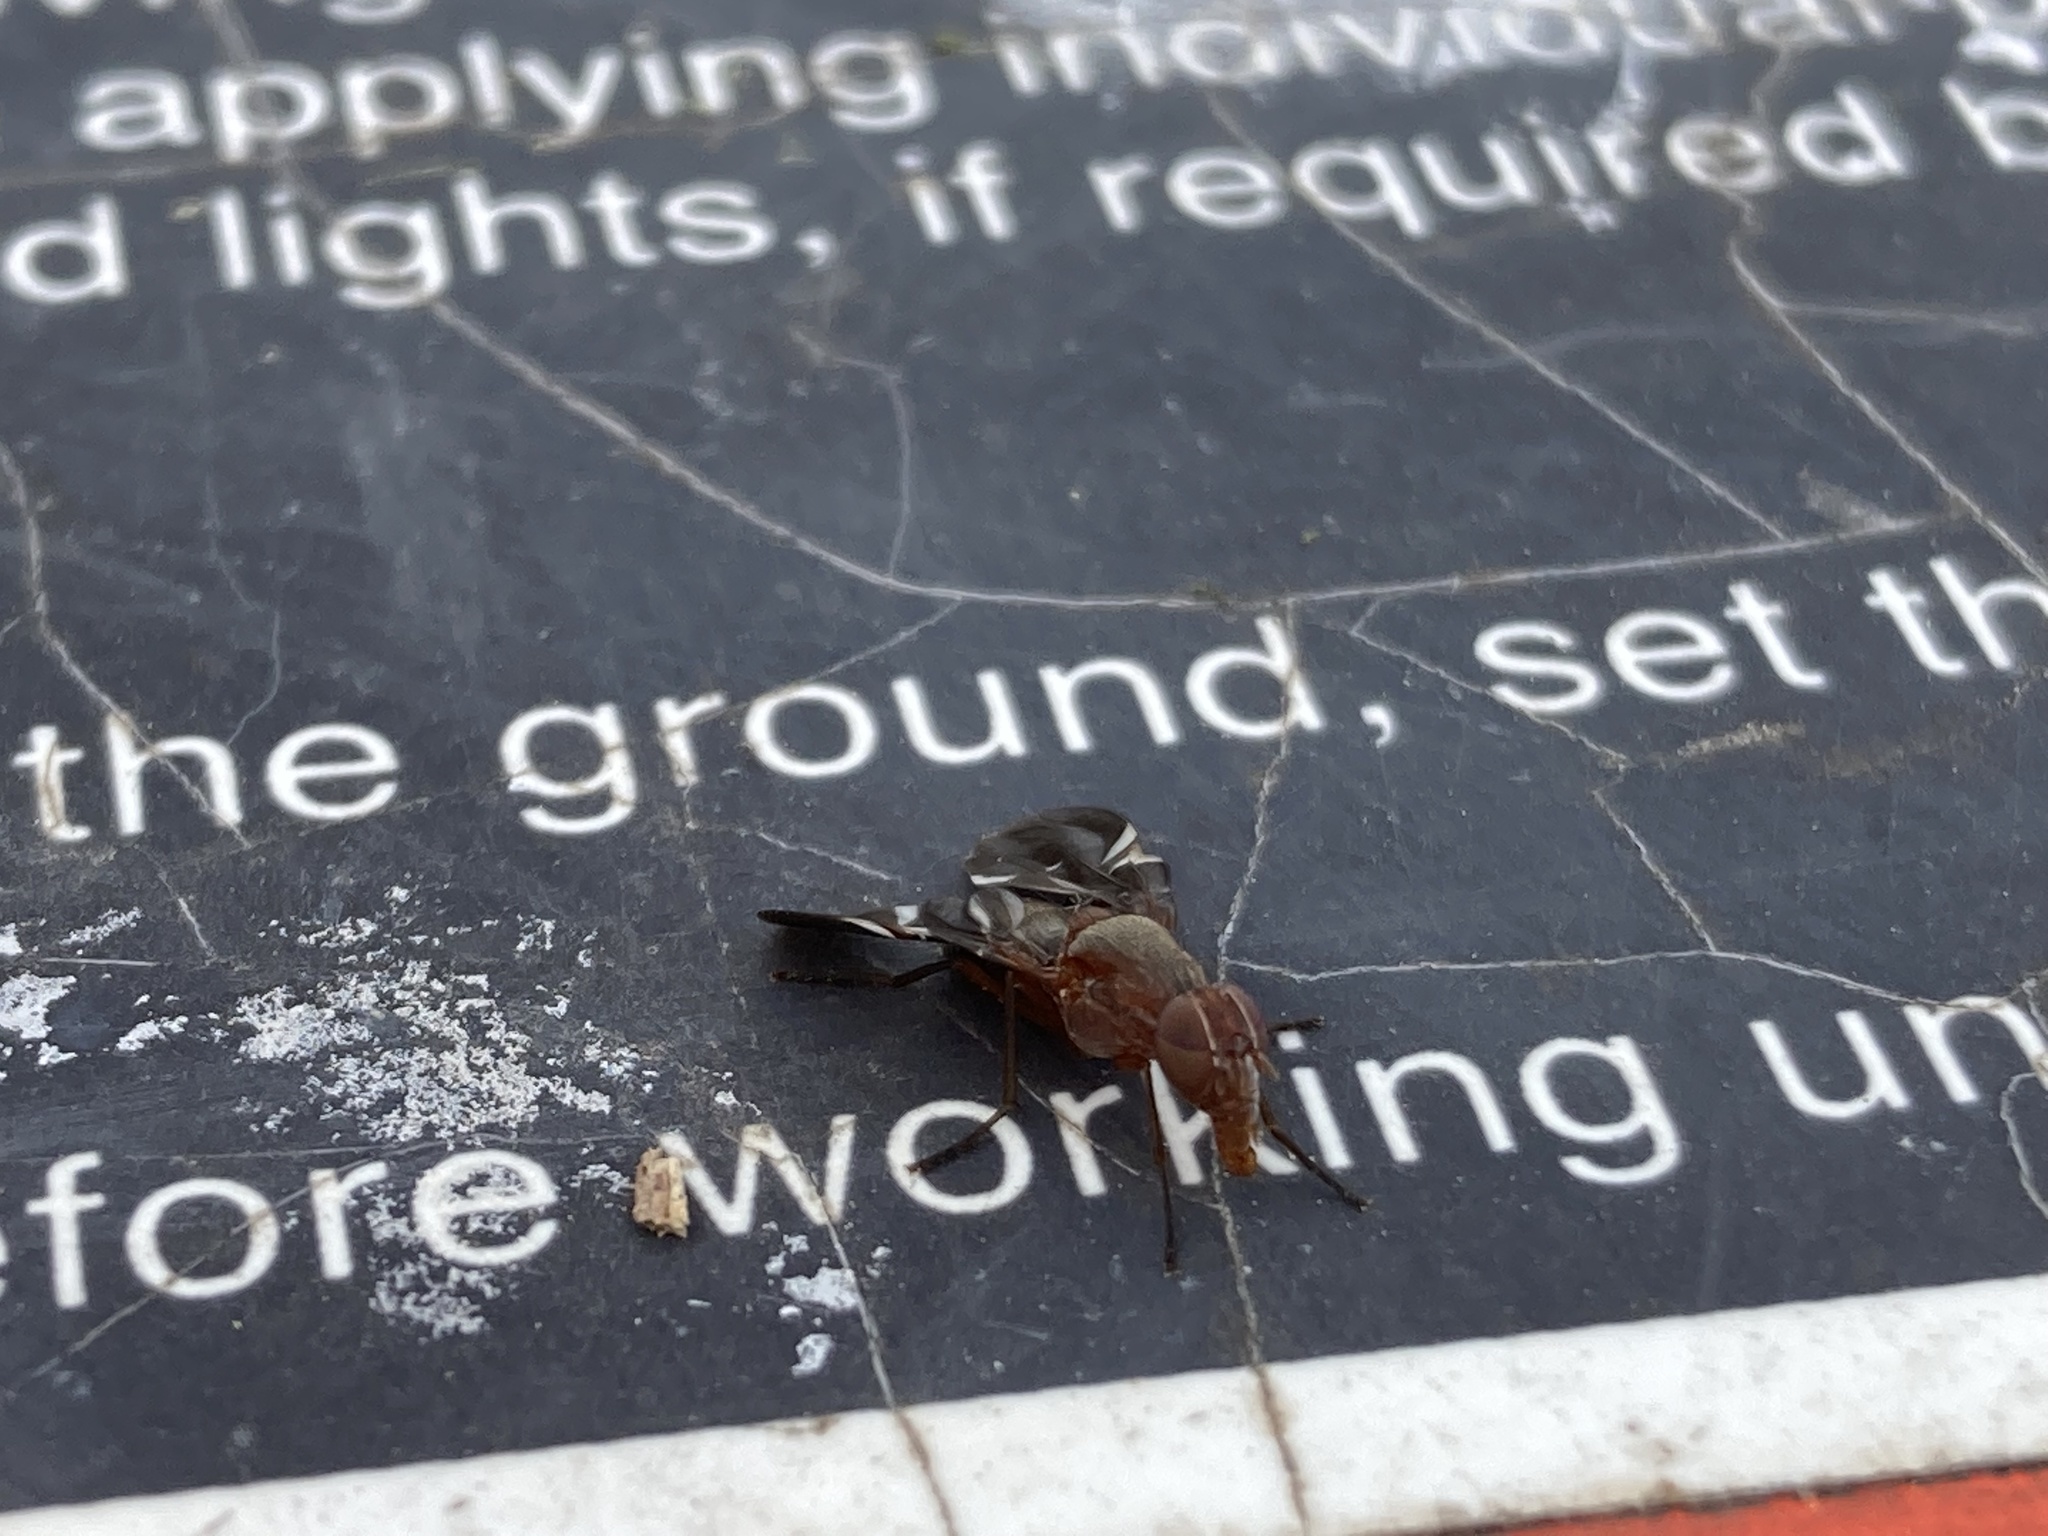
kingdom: Animalia
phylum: Arthropoda
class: Insecta
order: Diptera
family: Ulidiidae
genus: Delphinia
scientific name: Delphinia picta
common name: Common picture-winged fly
